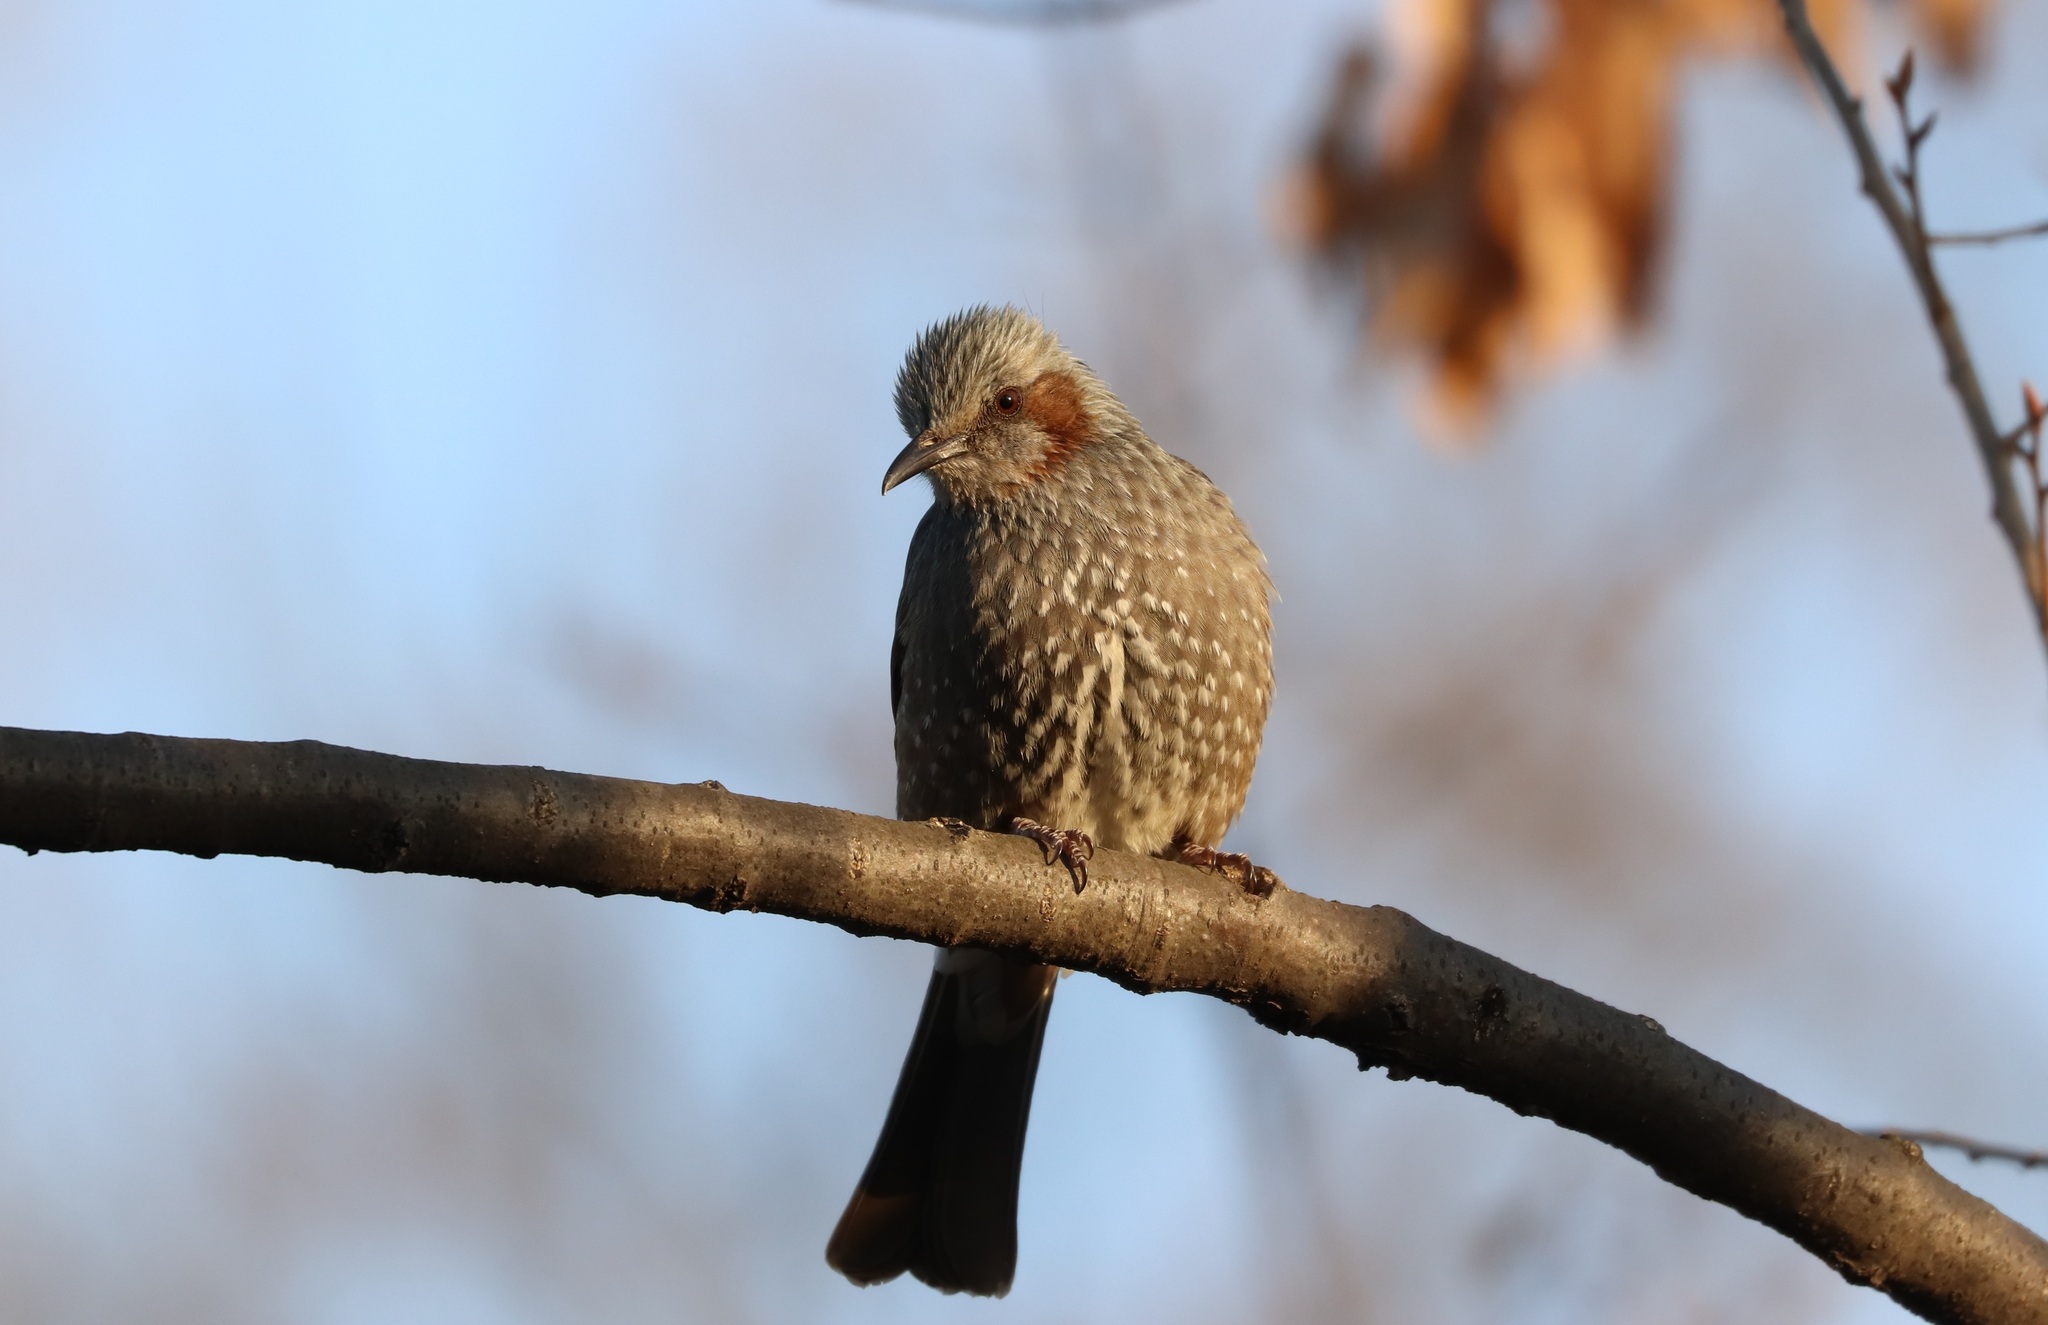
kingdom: Animalia
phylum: Chordata
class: Aves
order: Passeriformes
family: Pycnonotidae
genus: Hypsipetes
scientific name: Hypsipetes amaurotis
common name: Brown-eared bulbul
